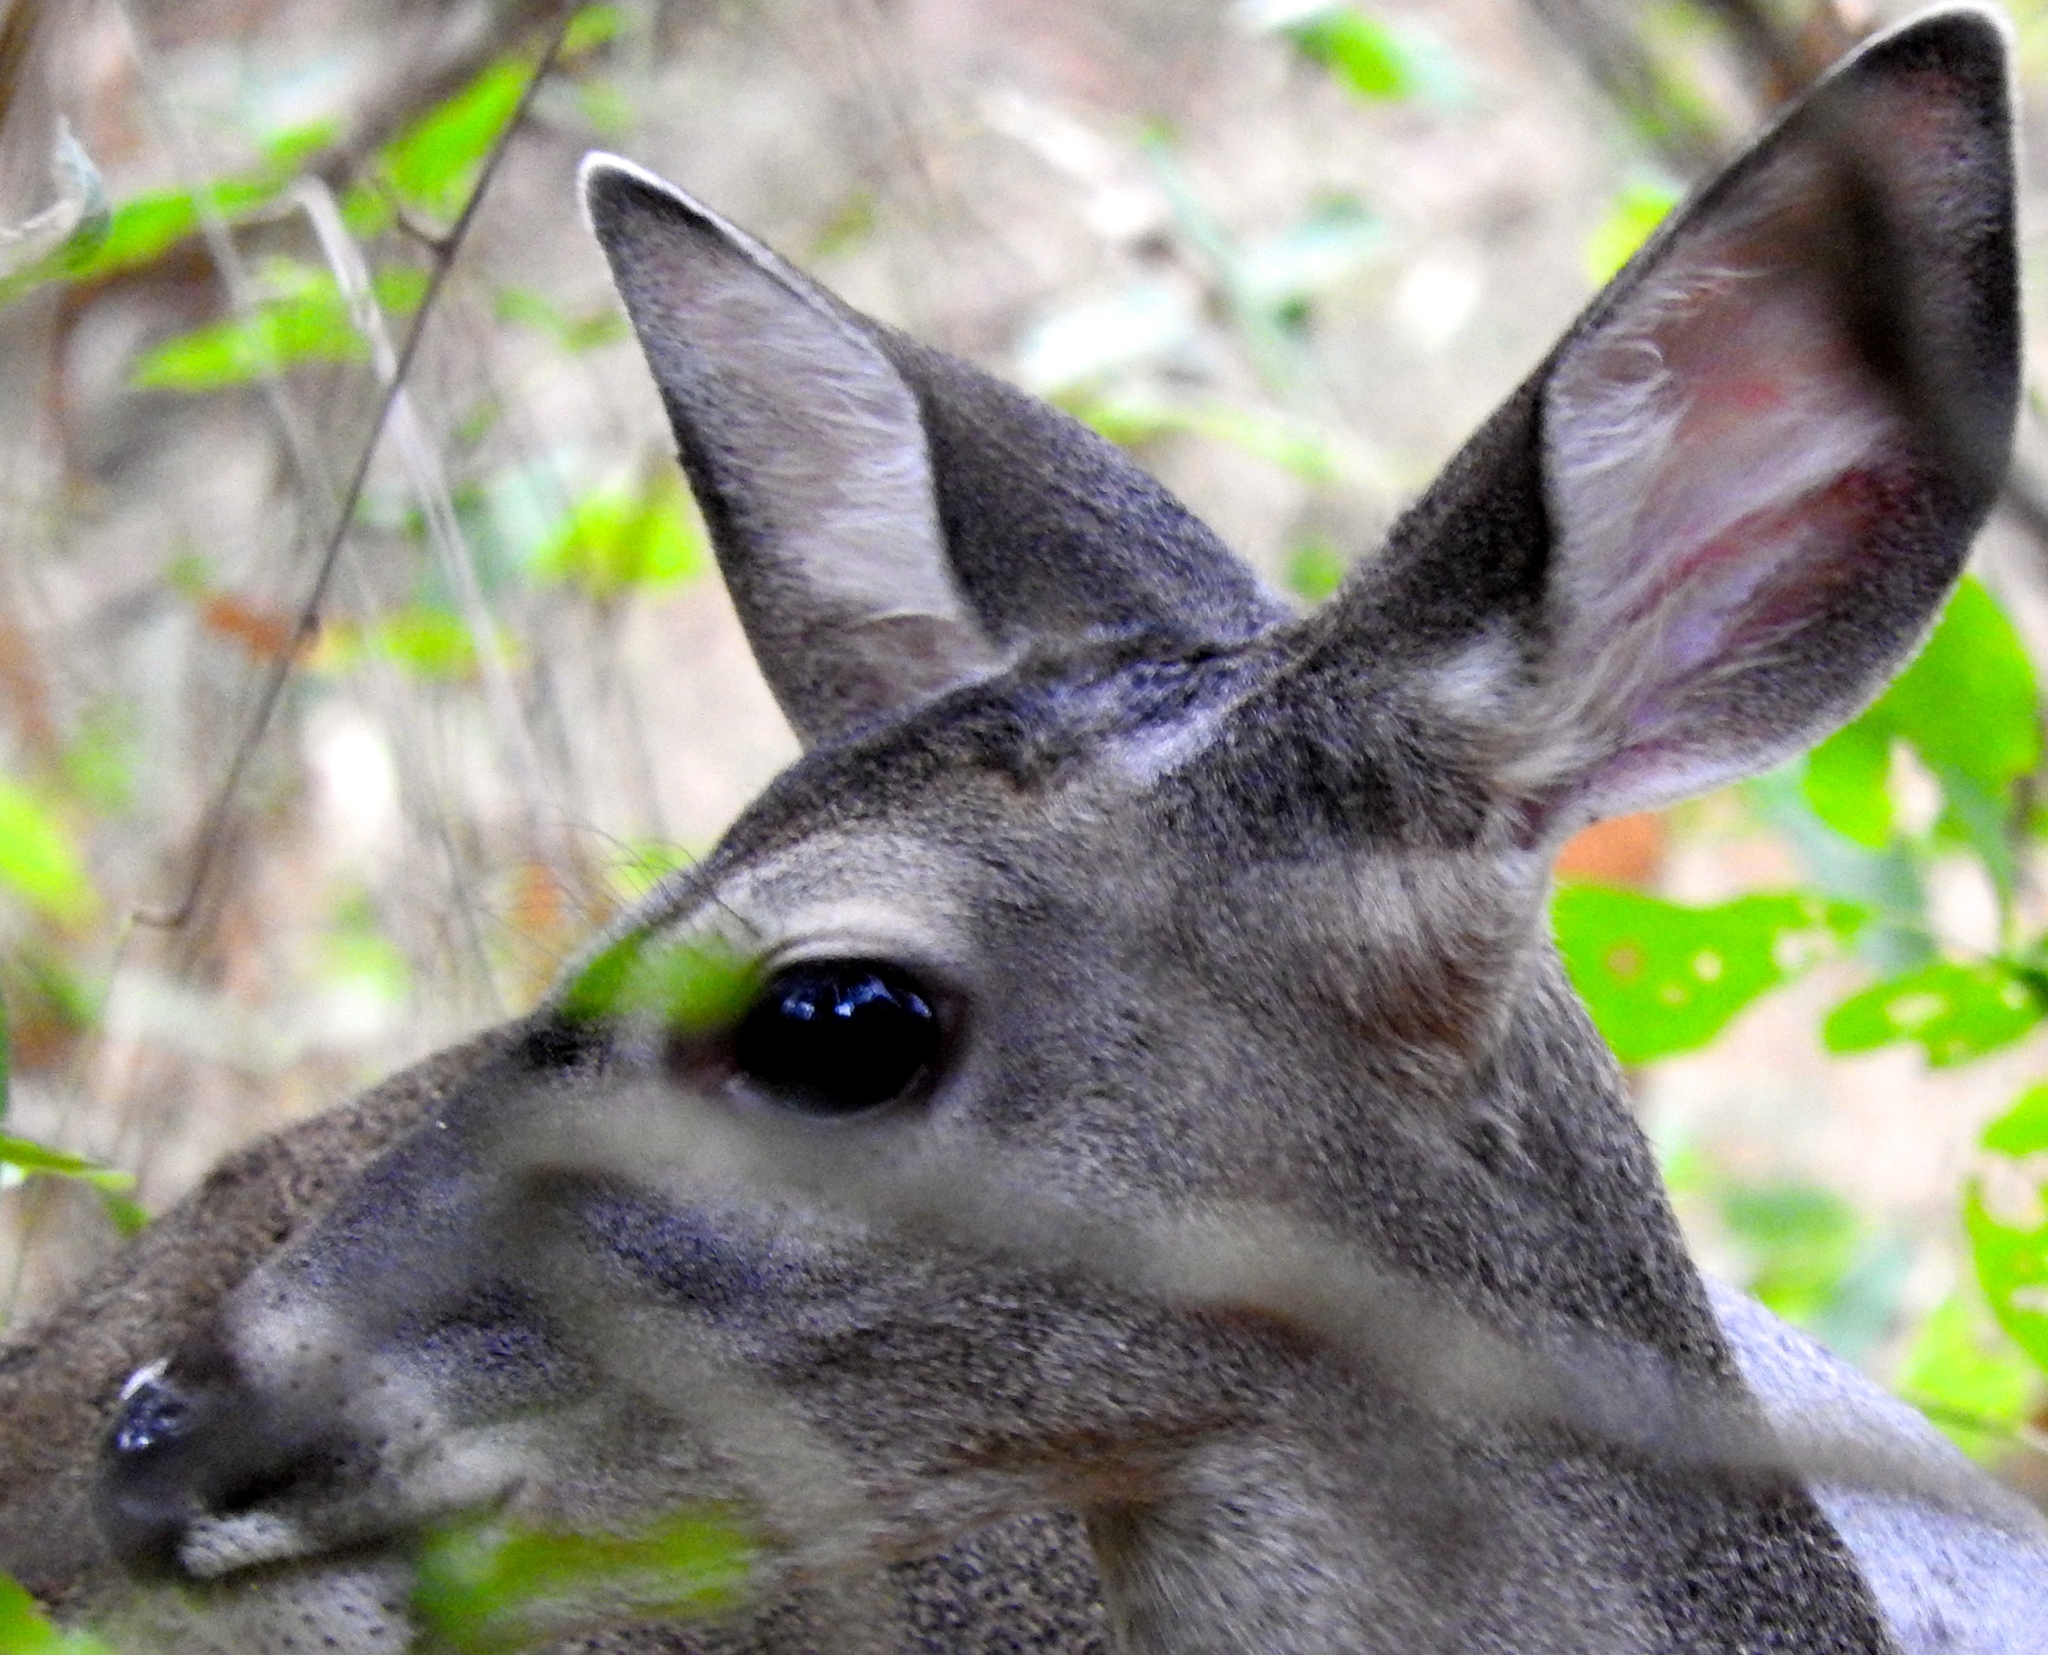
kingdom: Animalia
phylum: Chordata
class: Mammalia
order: Artiodactyla
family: Cervidae
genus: Odocoileus
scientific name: Odocoileus virginianus
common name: White-tailed deer
